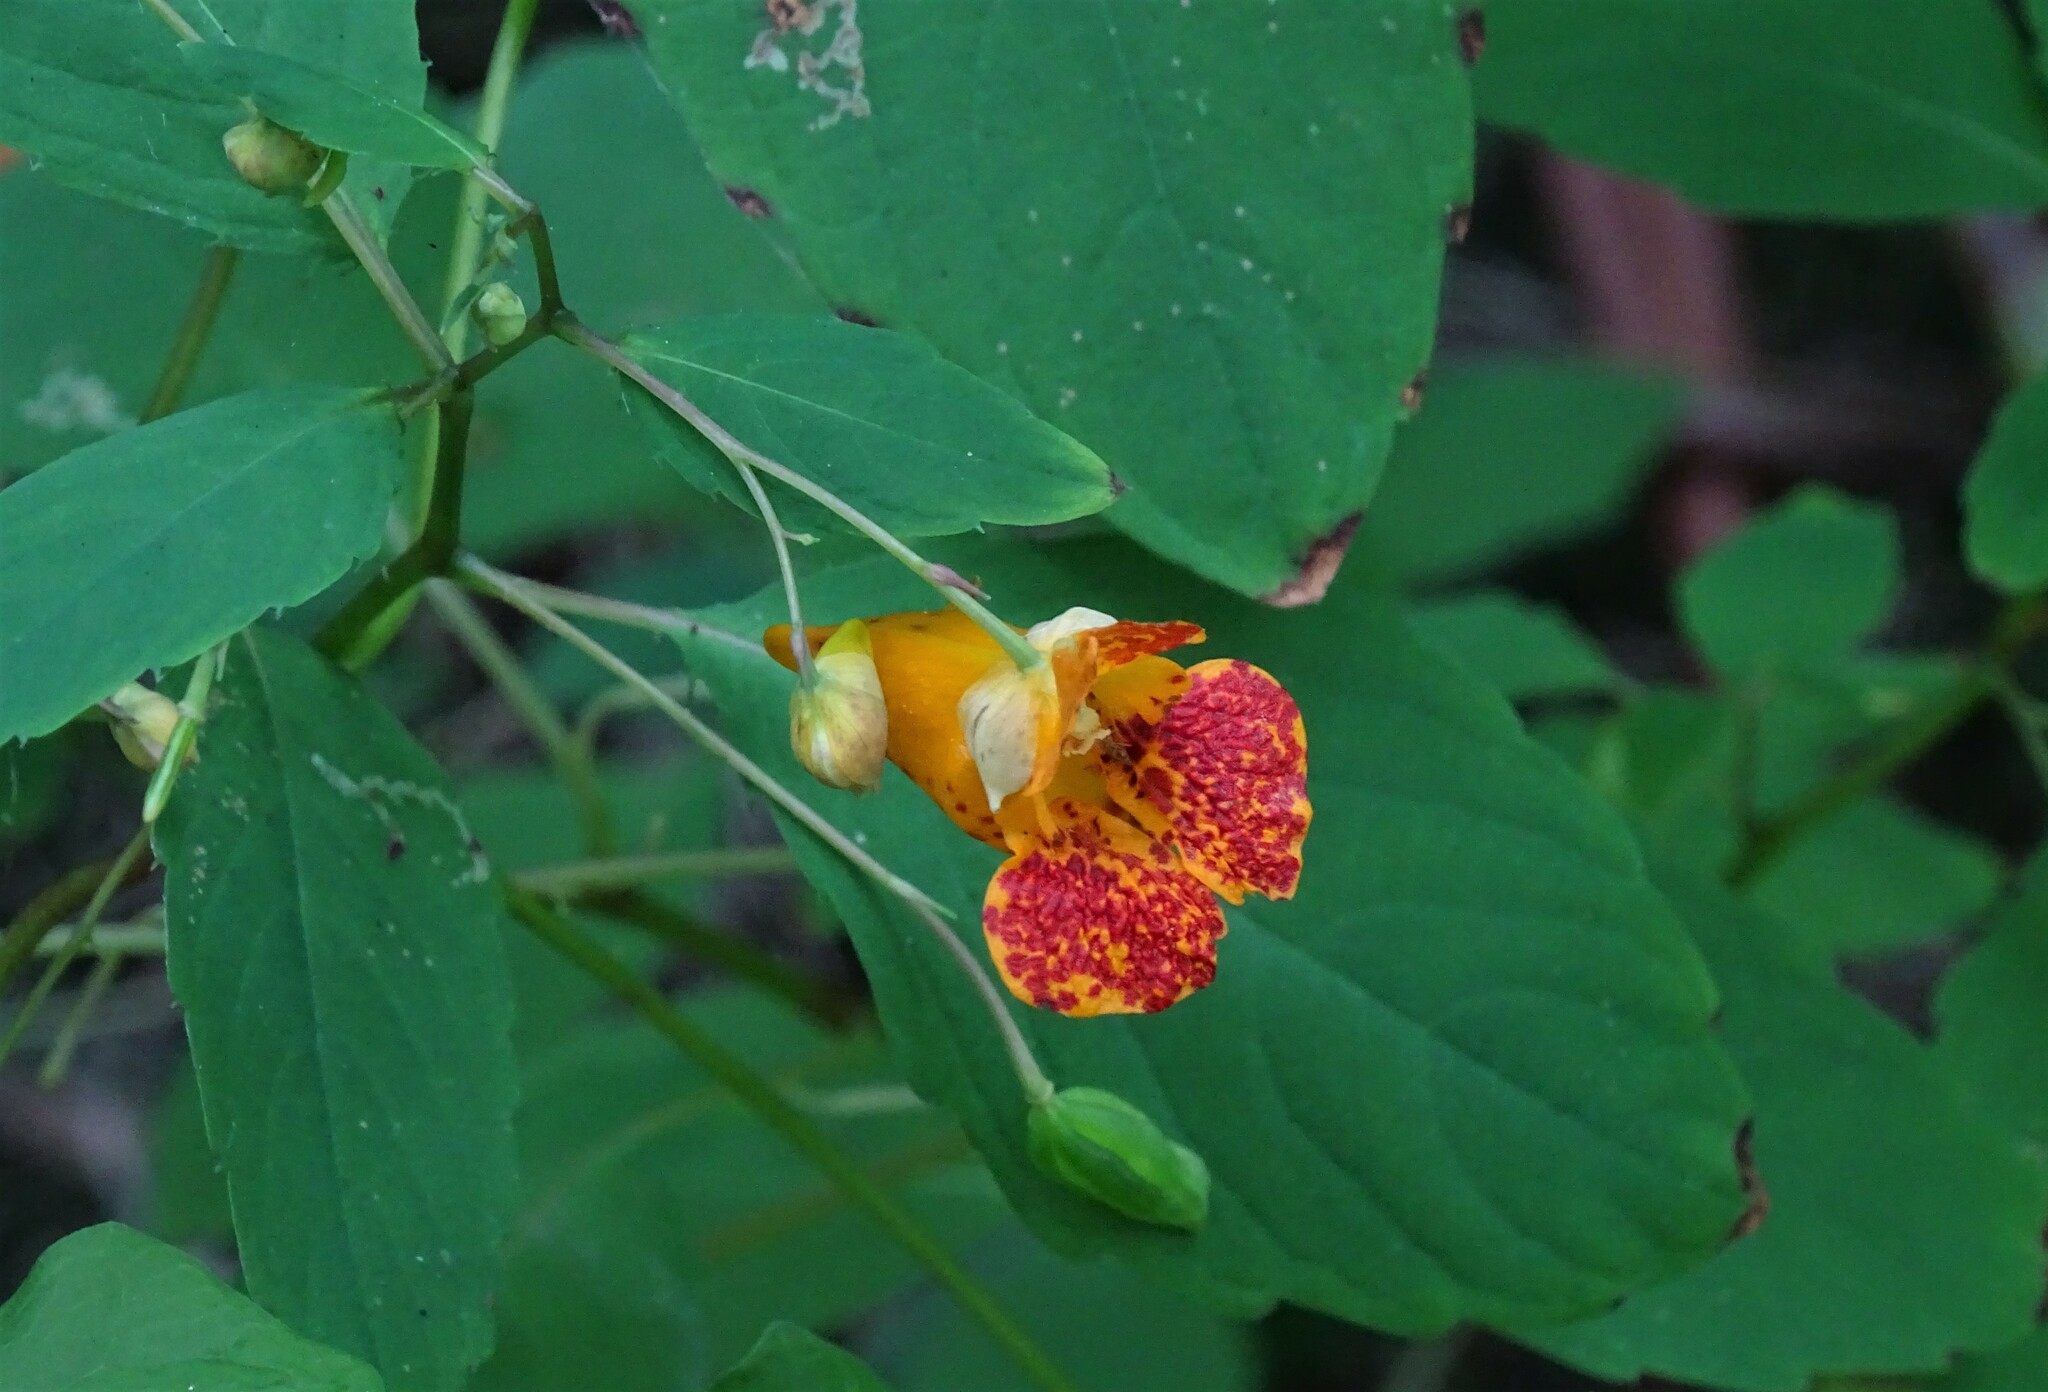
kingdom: Plantae
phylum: Tracheophyta
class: Magnoliopsida
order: Ericales
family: Balsaminaceae
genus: Impatiens
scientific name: Impatiens capensis
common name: Orange balsam
